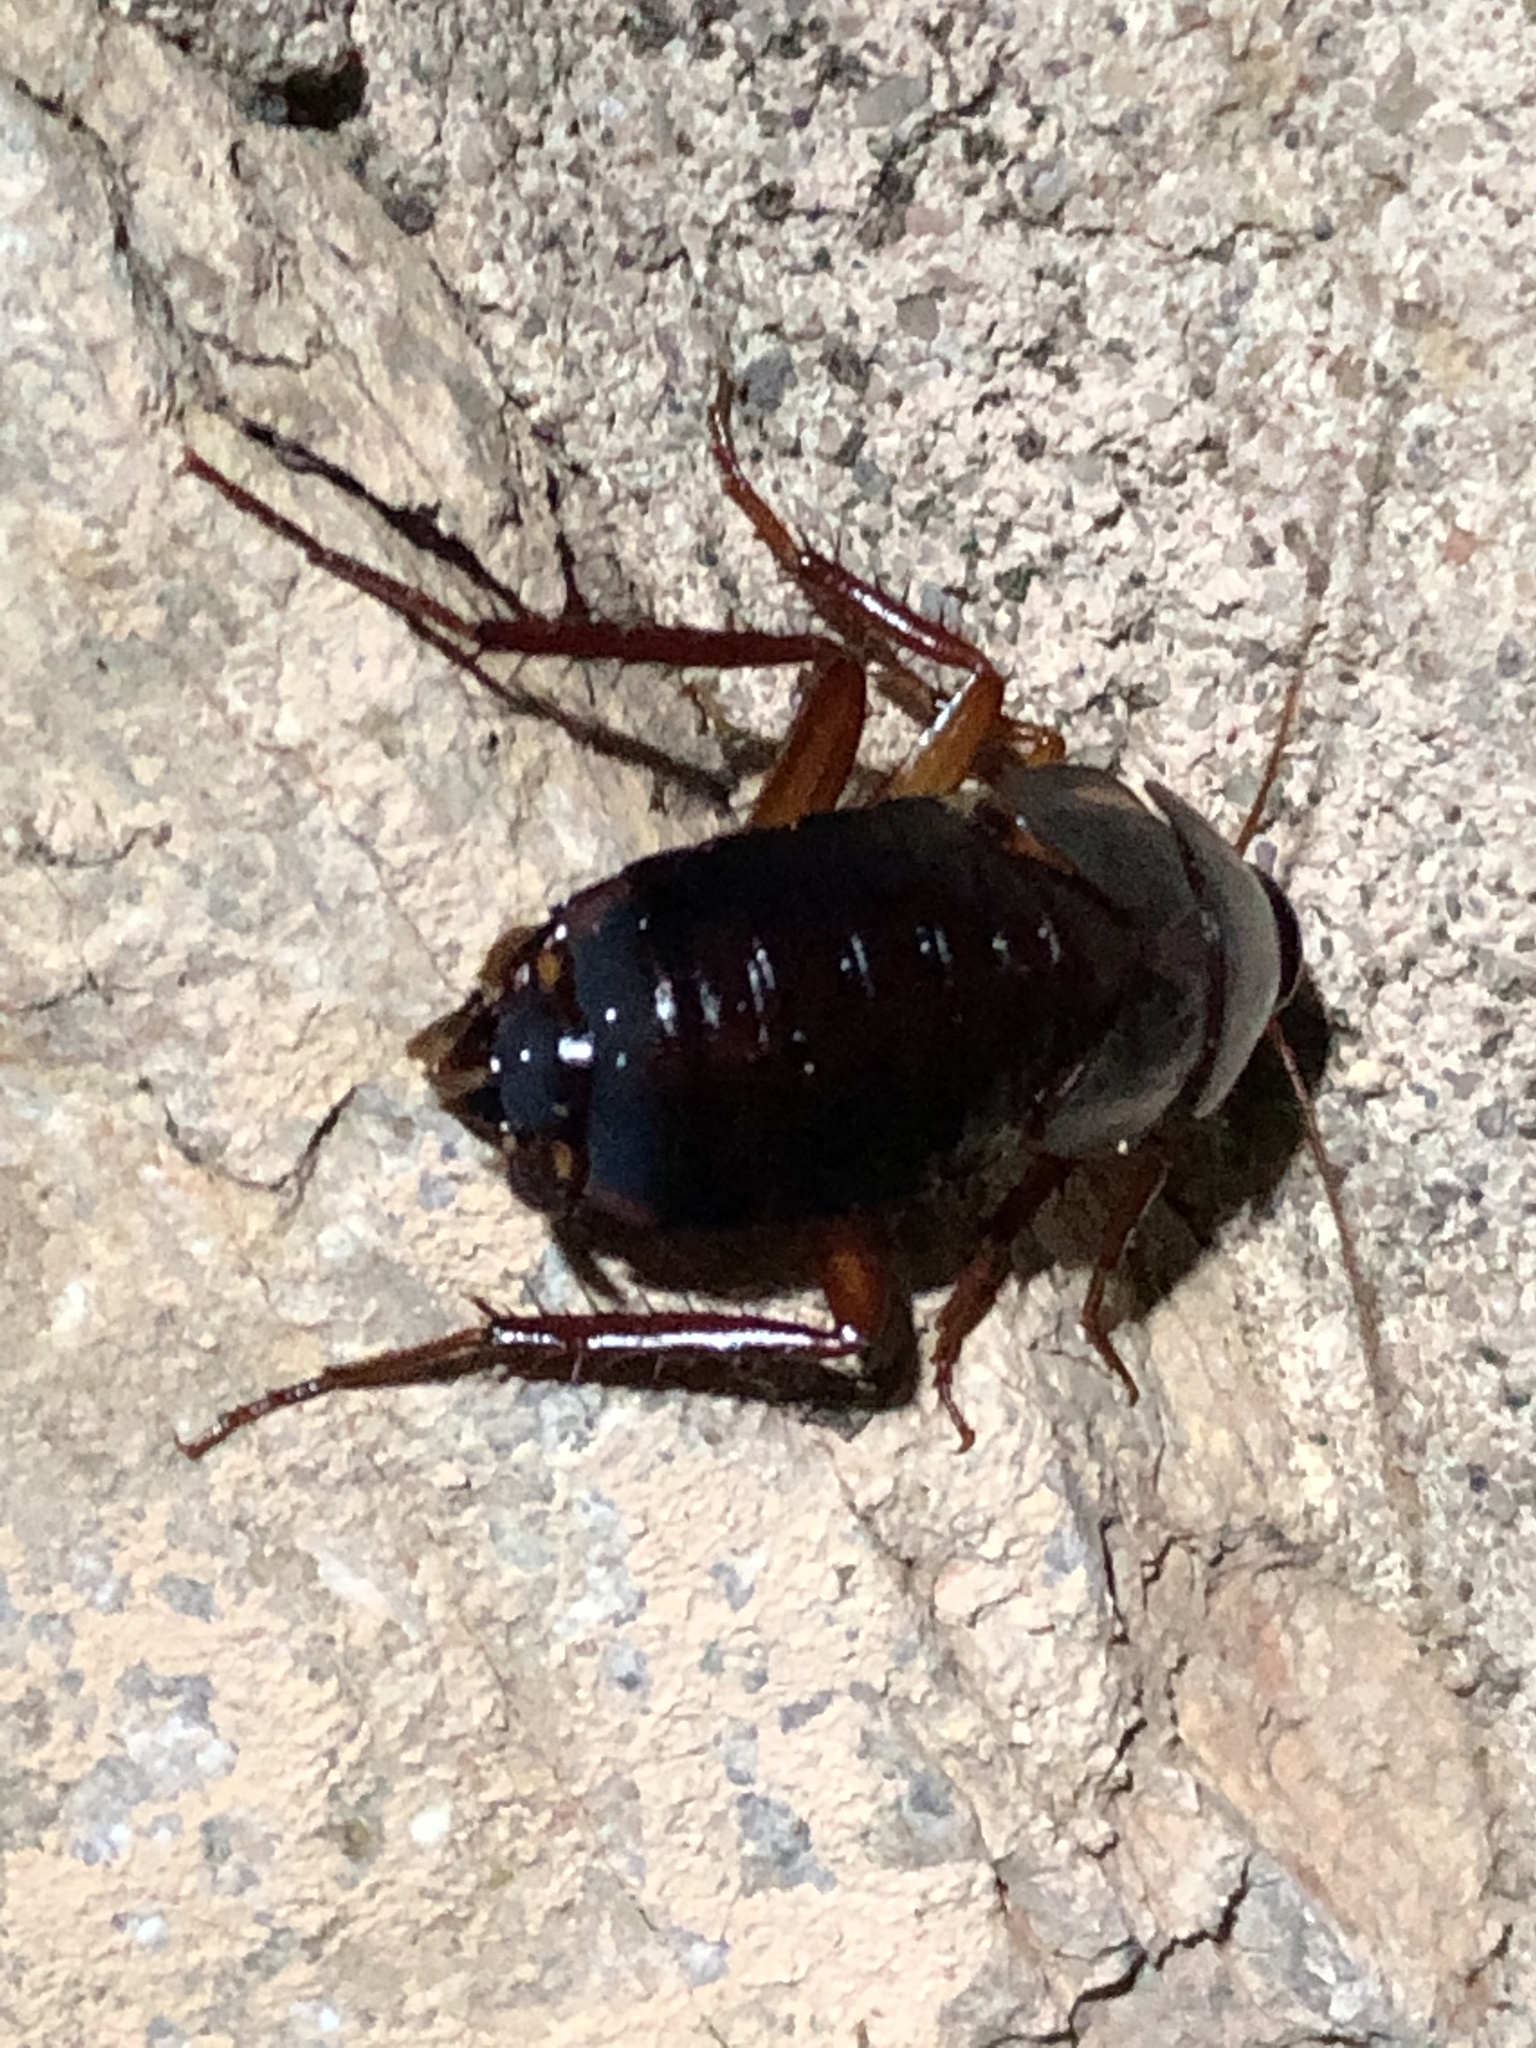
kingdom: Animalia
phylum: Arthropoda
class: Insecta
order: Blattodea
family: Blattidae
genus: Periplaneta
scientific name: Periplaneta lateralis
